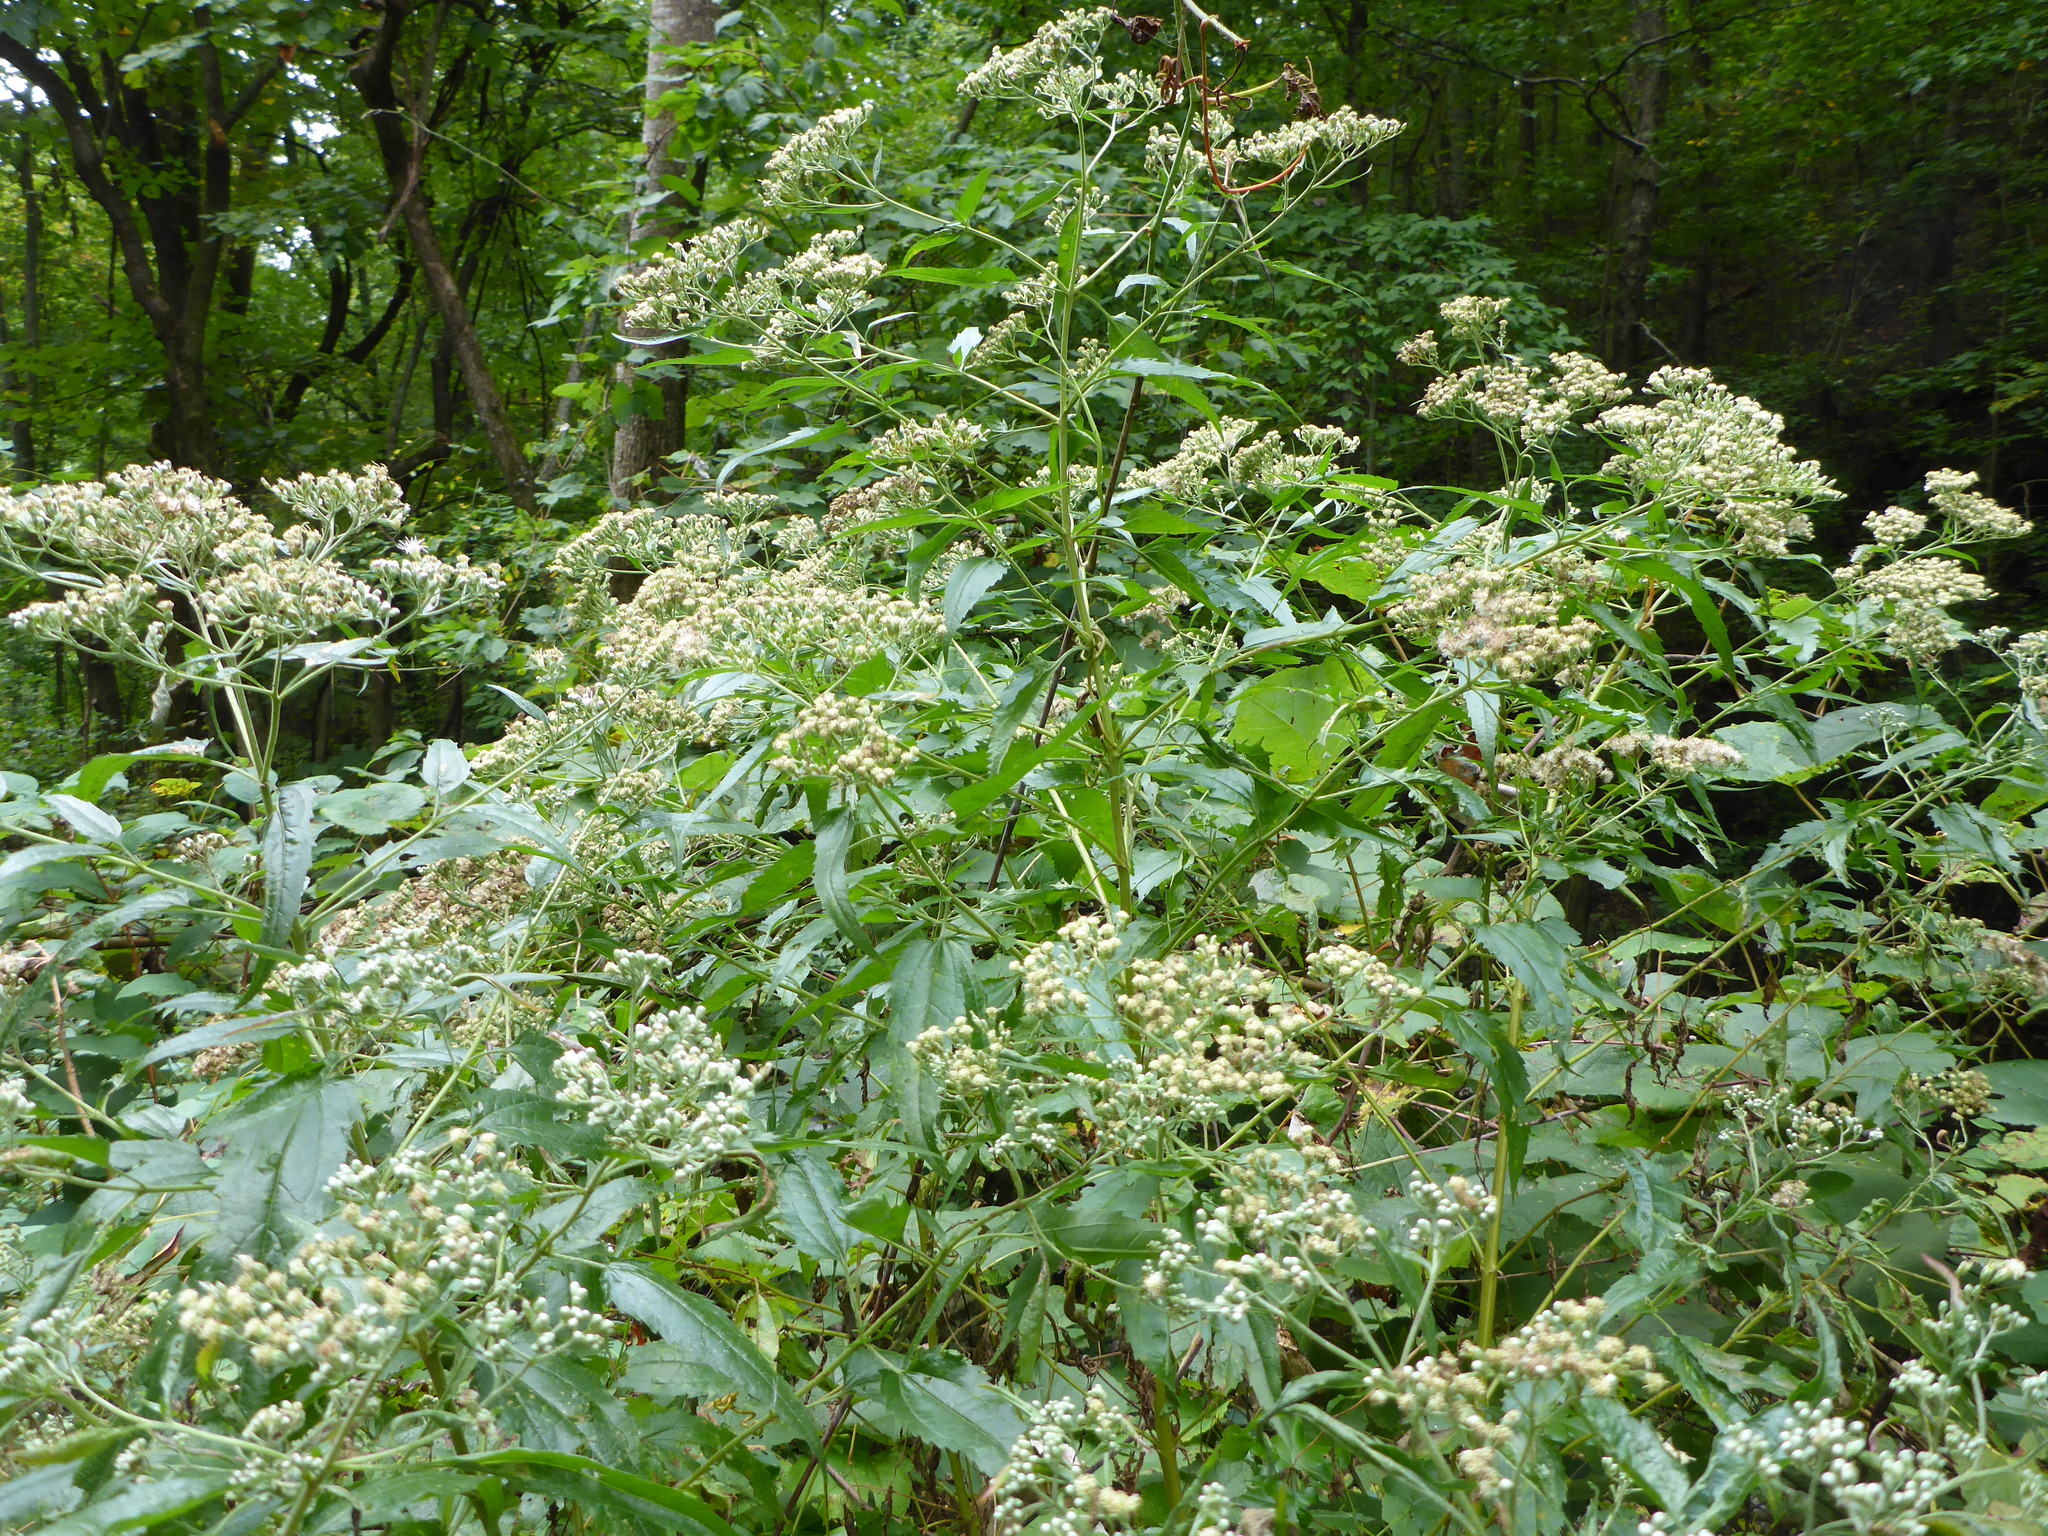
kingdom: Plantae
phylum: Tracheophyta
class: Magnoliopsida
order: Asterales
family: Asteraceae
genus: Ageratina
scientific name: Ageratina altissima
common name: White snakeroot
